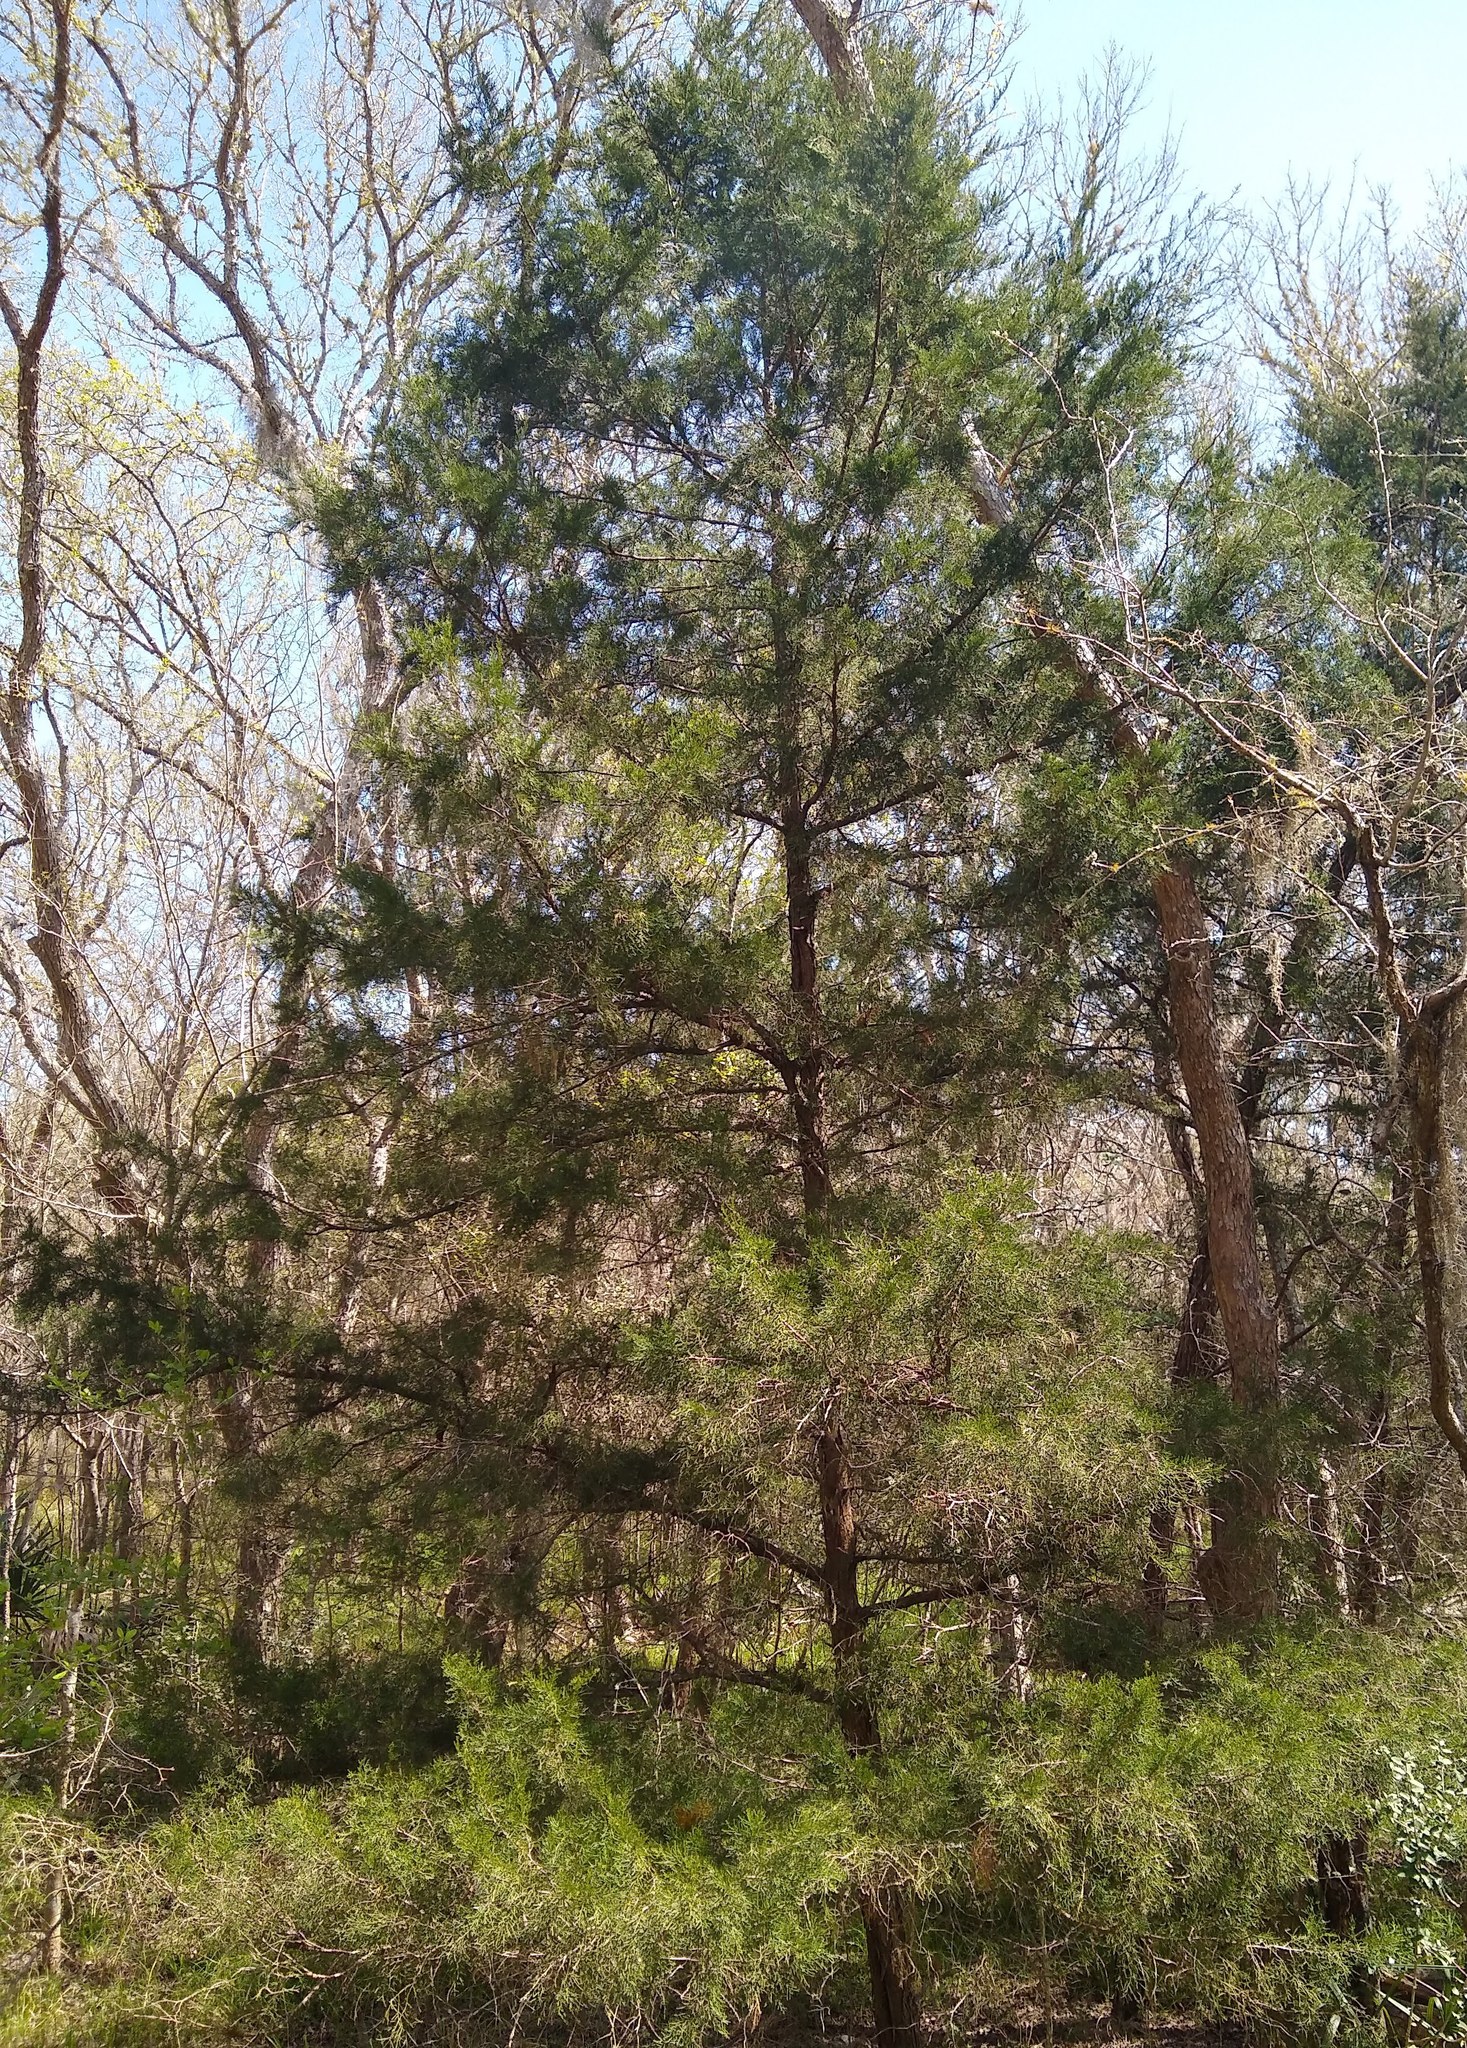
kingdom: Plantae
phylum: Tracheophyta
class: Pinopsida
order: Pinales
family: Cupressaceae
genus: Juniperus
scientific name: Juniperus virginiana
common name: Red juniper
